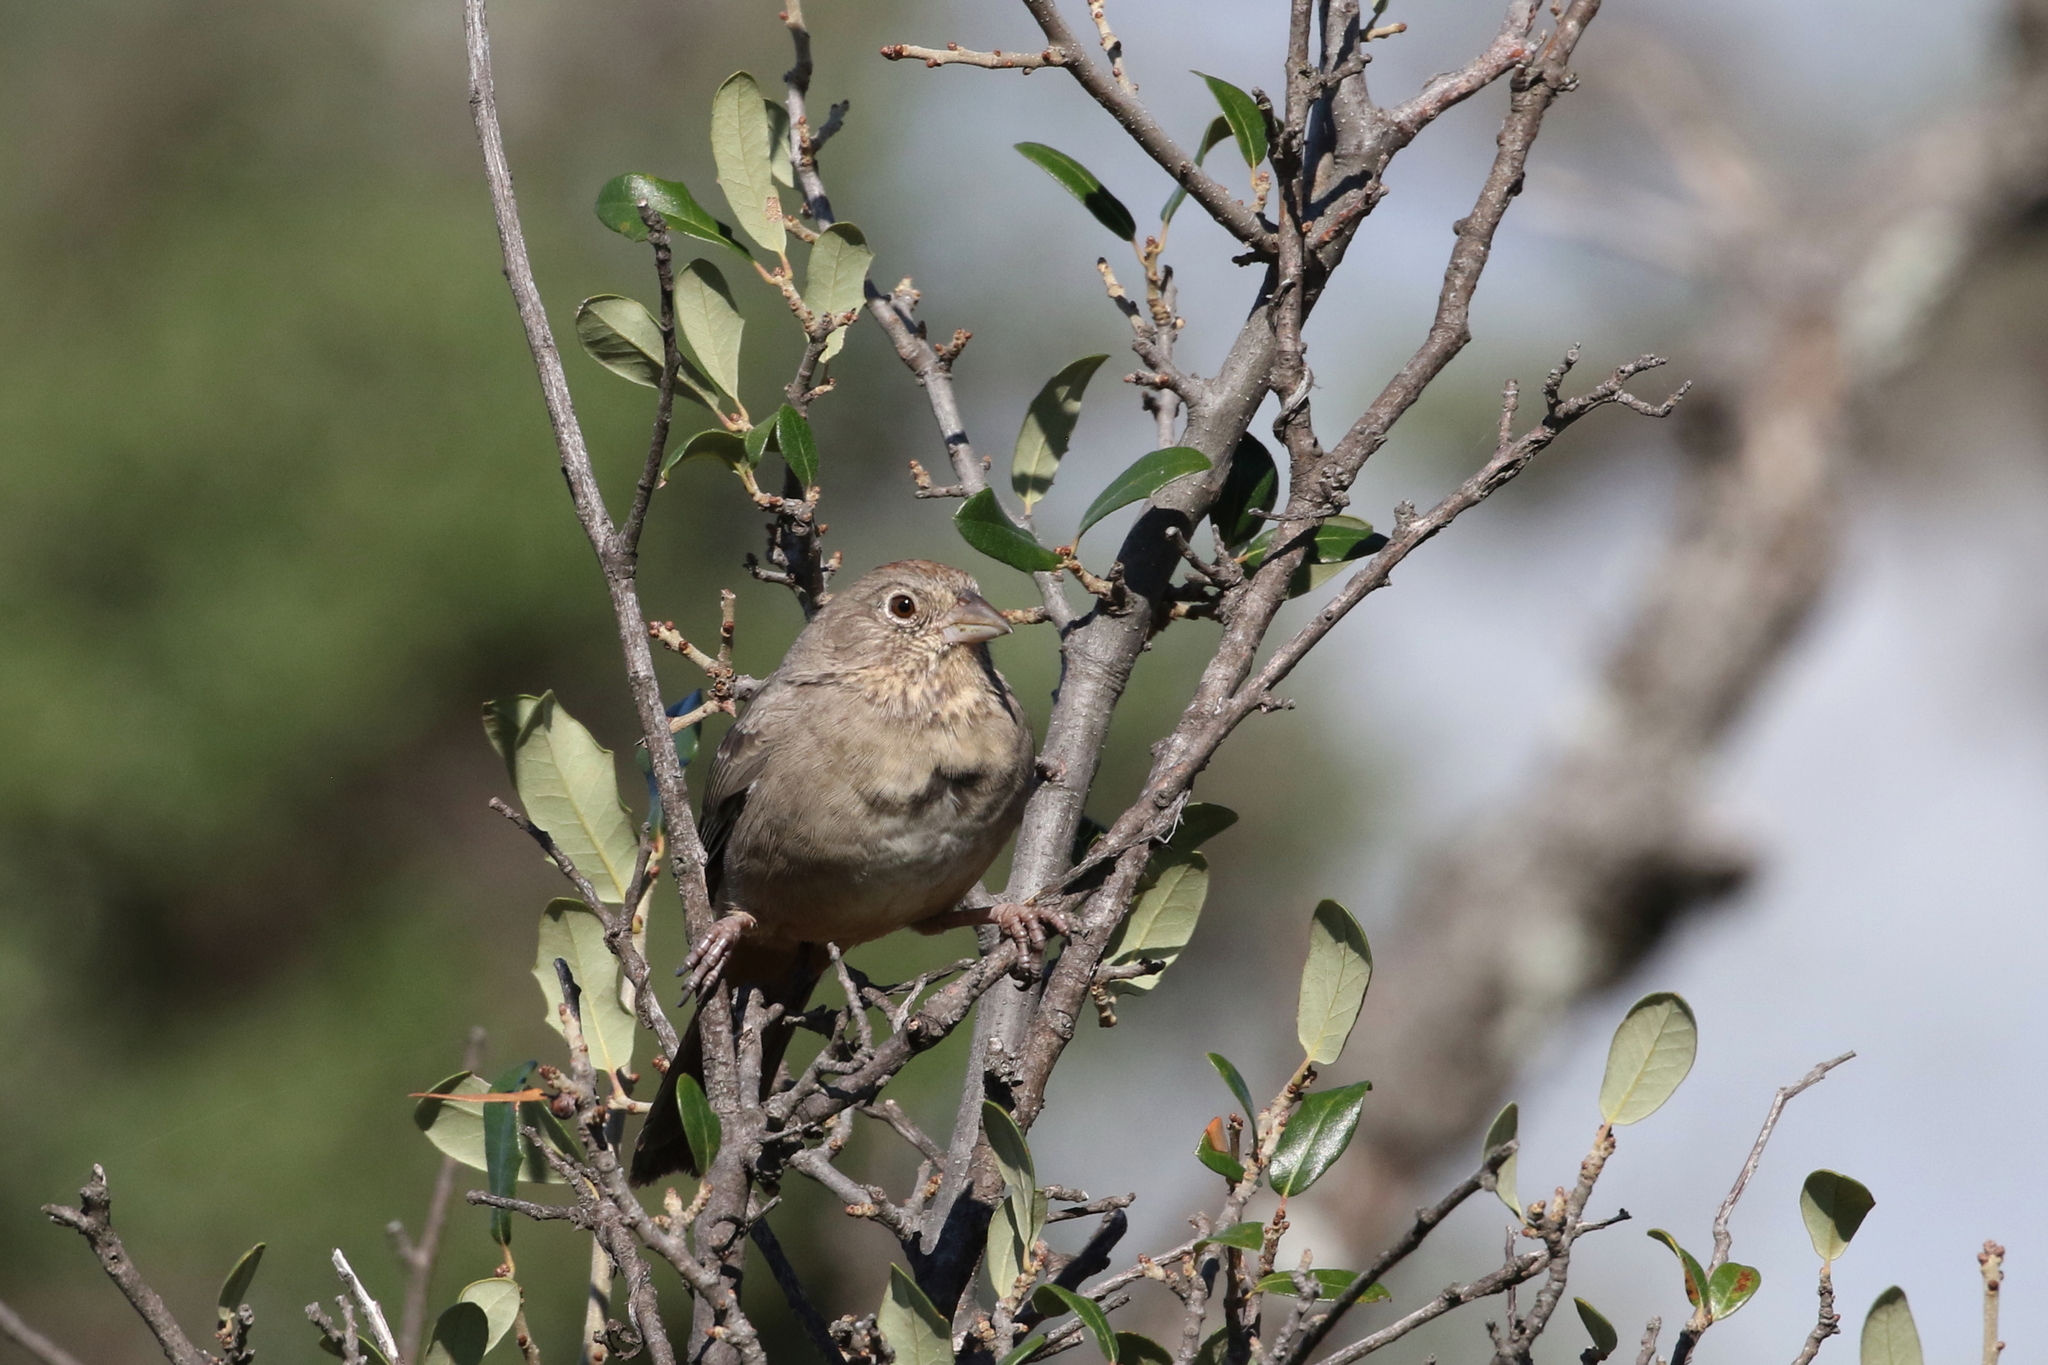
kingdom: Animalia
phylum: Chordata
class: Aves
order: Passeriformes
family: Passerellidae
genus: Melozone
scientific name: Melozone fusca
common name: Canyon towhee
